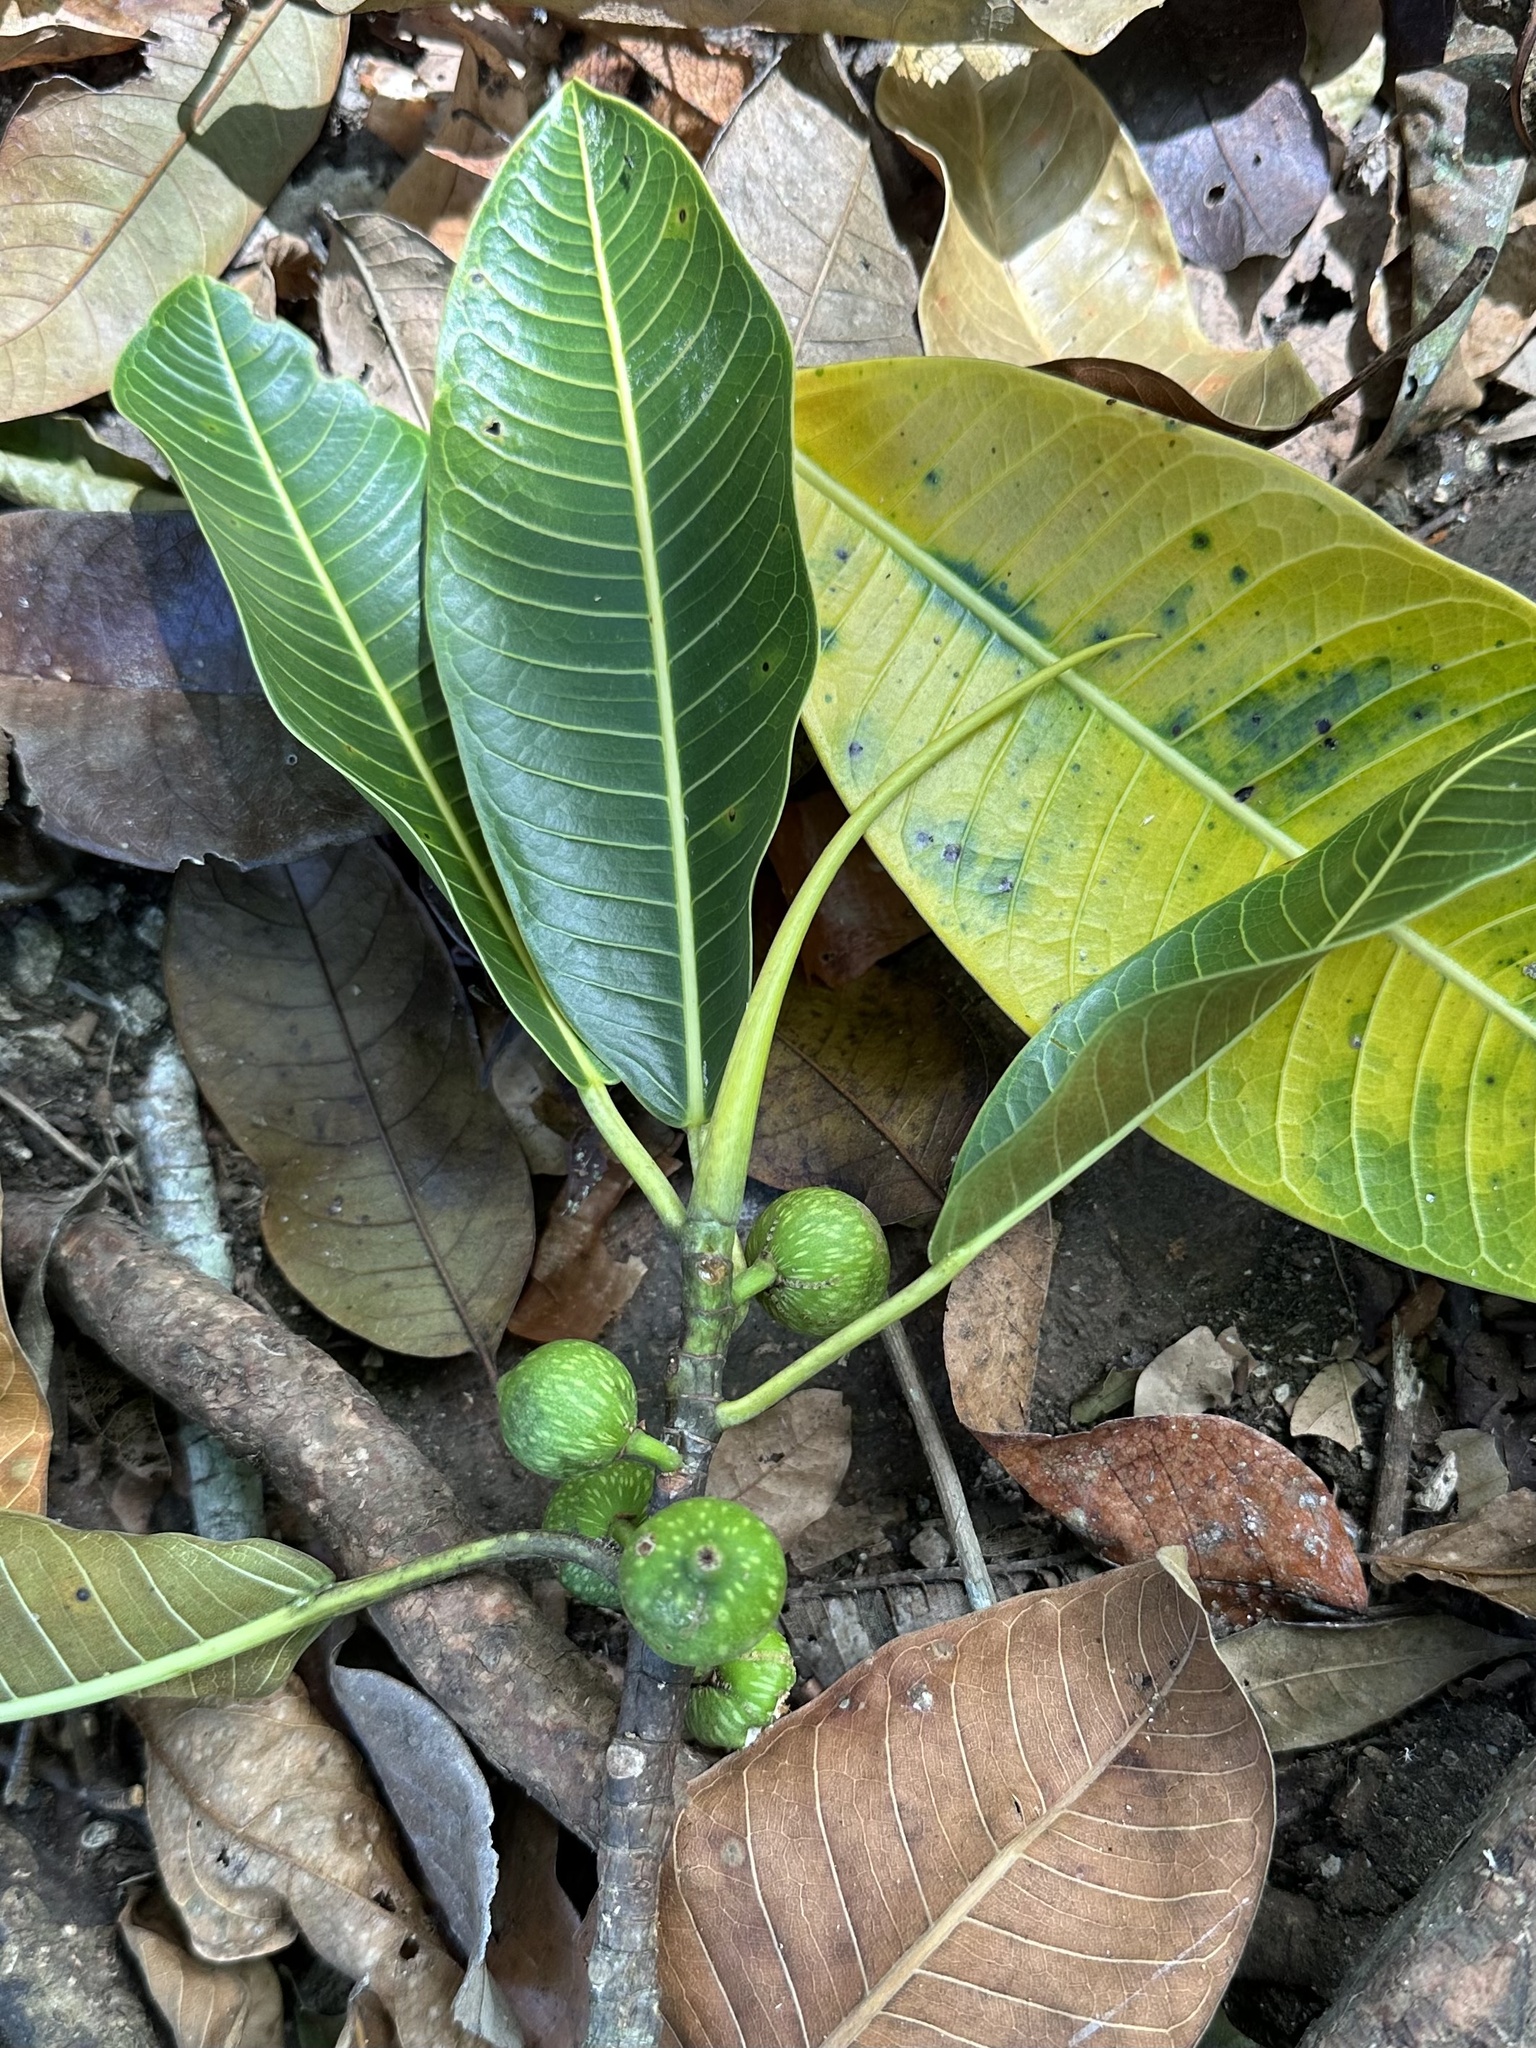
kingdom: Plantae
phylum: Tracheophyta
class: Magnoliopsida
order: Rosales
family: Moraceae
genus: Ficus
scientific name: Ficus insipida
